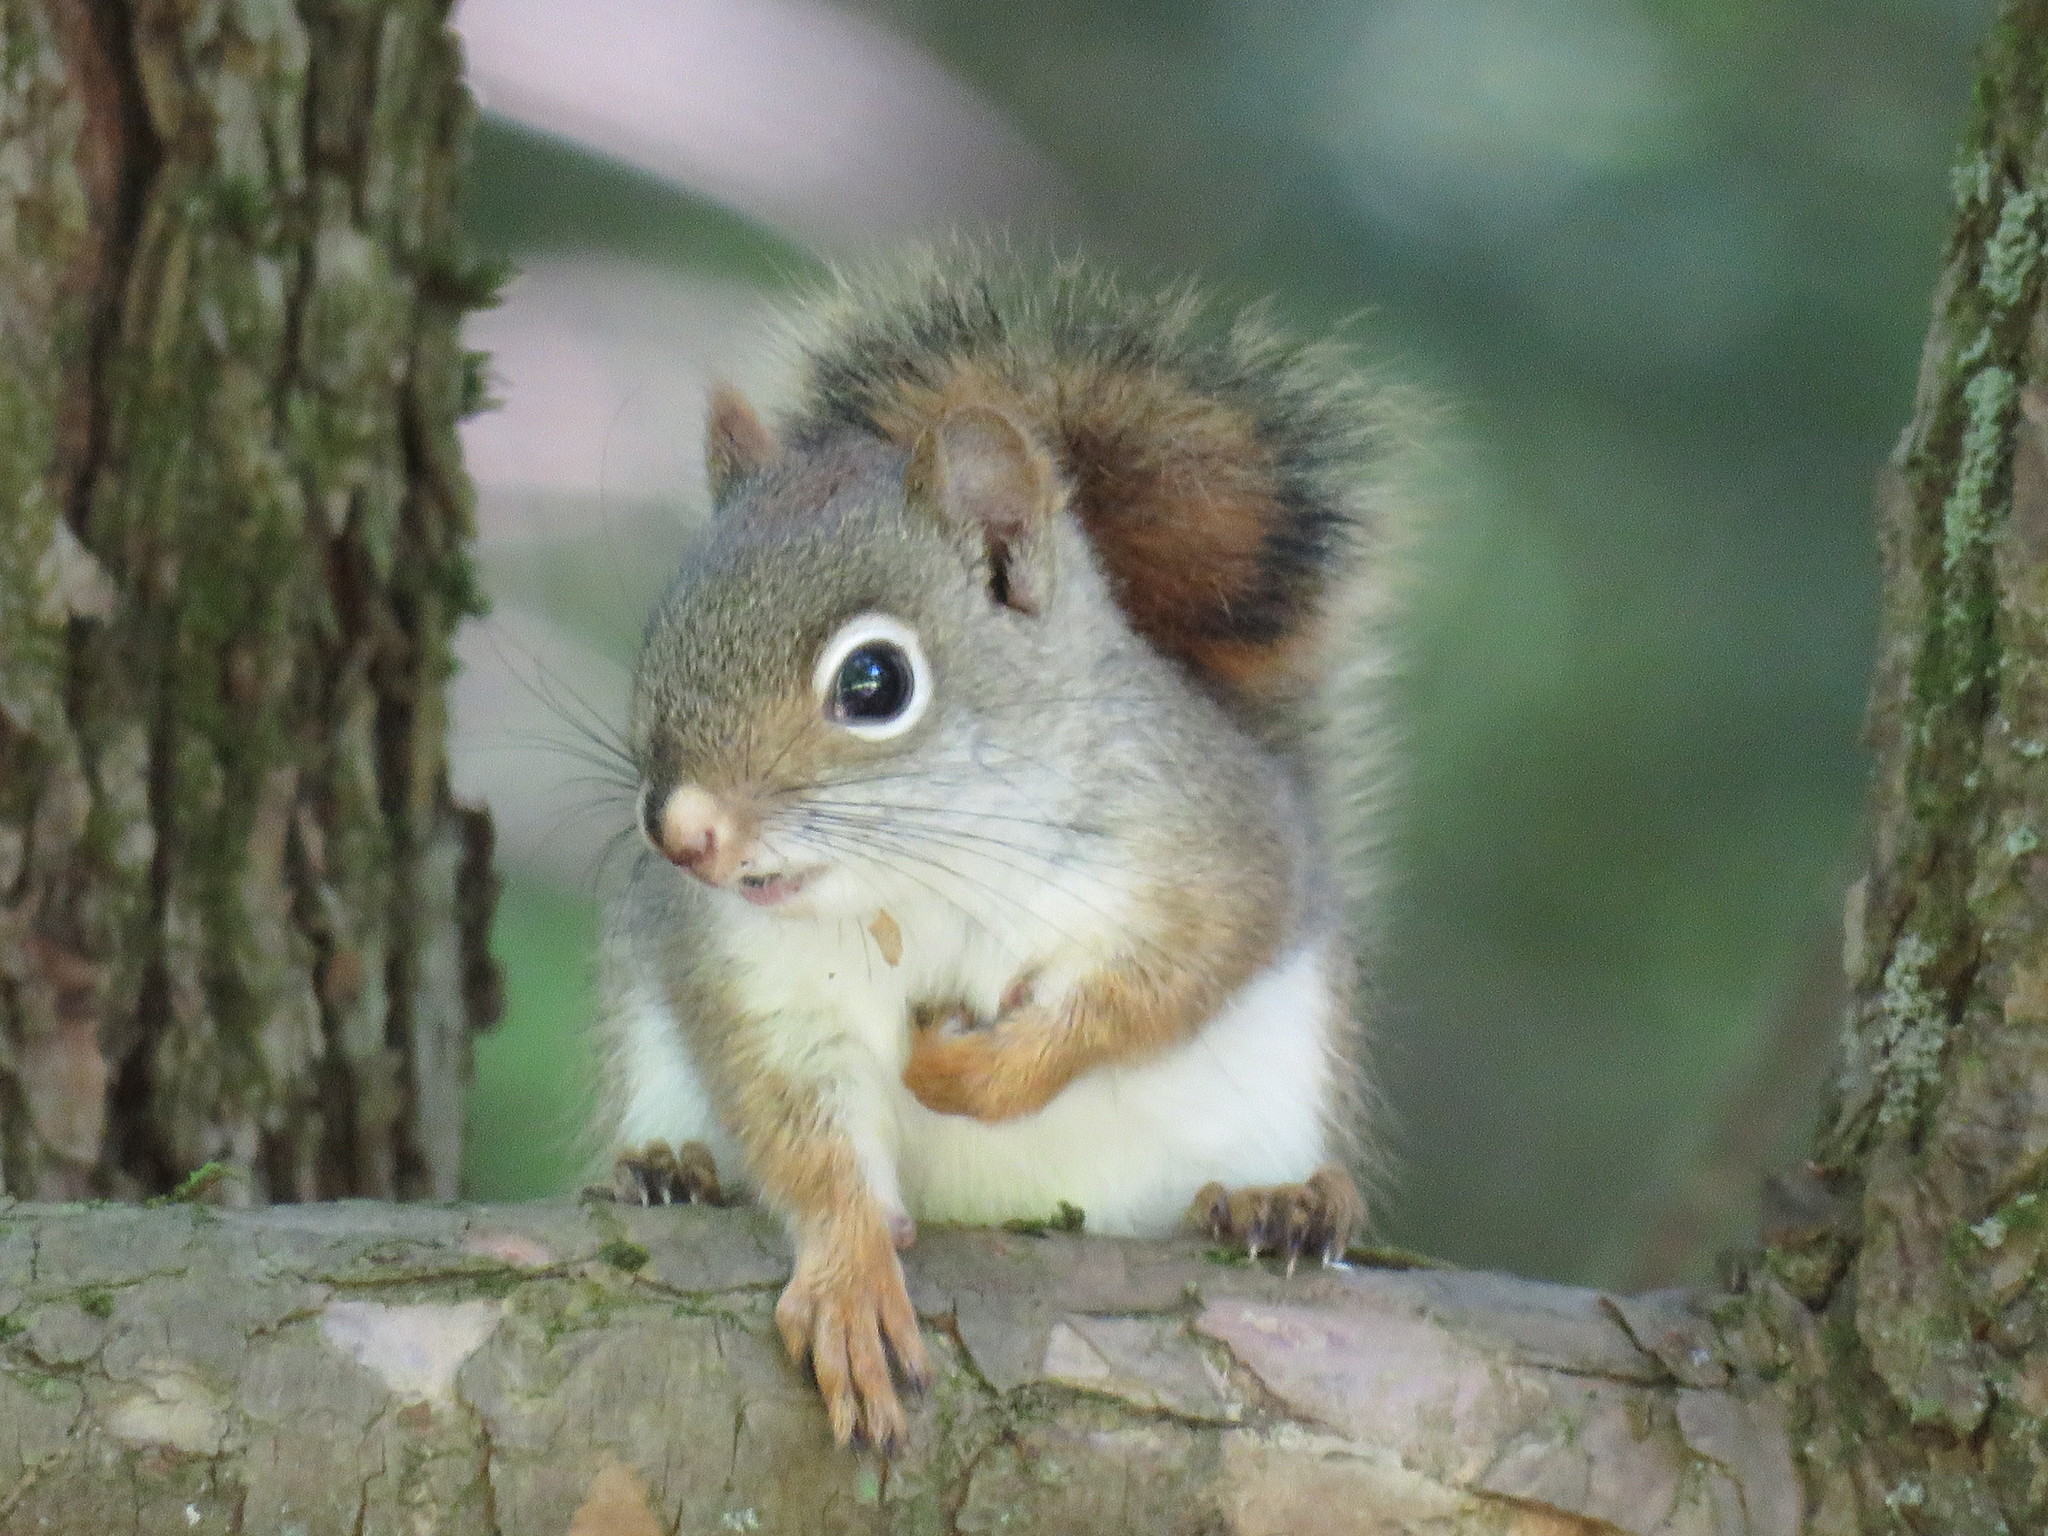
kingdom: Animalia
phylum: Chordata
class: Mammalia
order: Rodentia
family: Sciuridae
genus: Tamiasciurus
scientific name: Tamiasciurus hudsonicus
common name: Red squirrel
